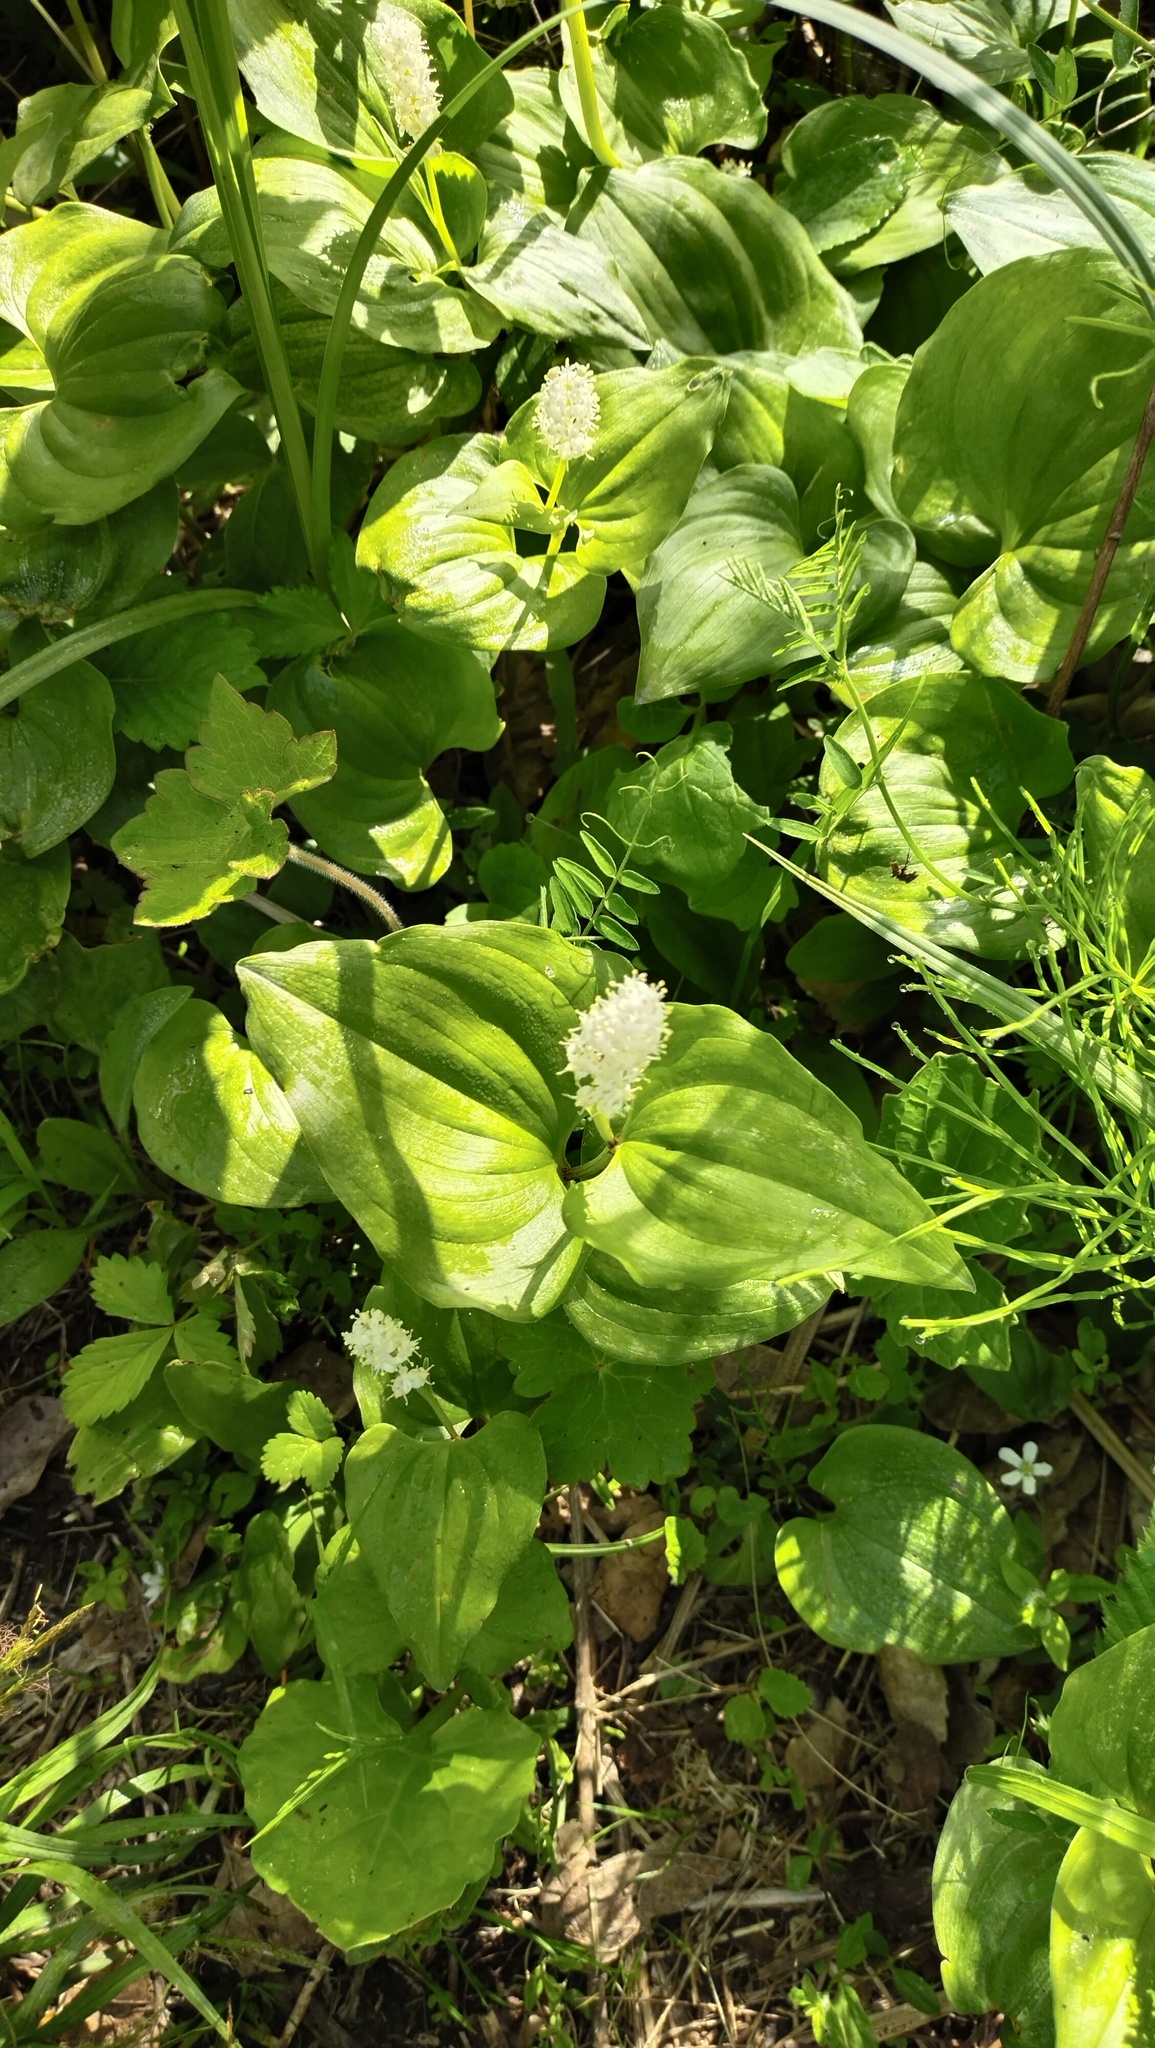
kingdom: Plantae
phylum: Tracheophyta
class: Liliopsida
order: Asparagales
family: Asparagaceae
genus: Maianthemum
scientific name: Maianthemum dilatatum
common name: False lily-of-the-valley
